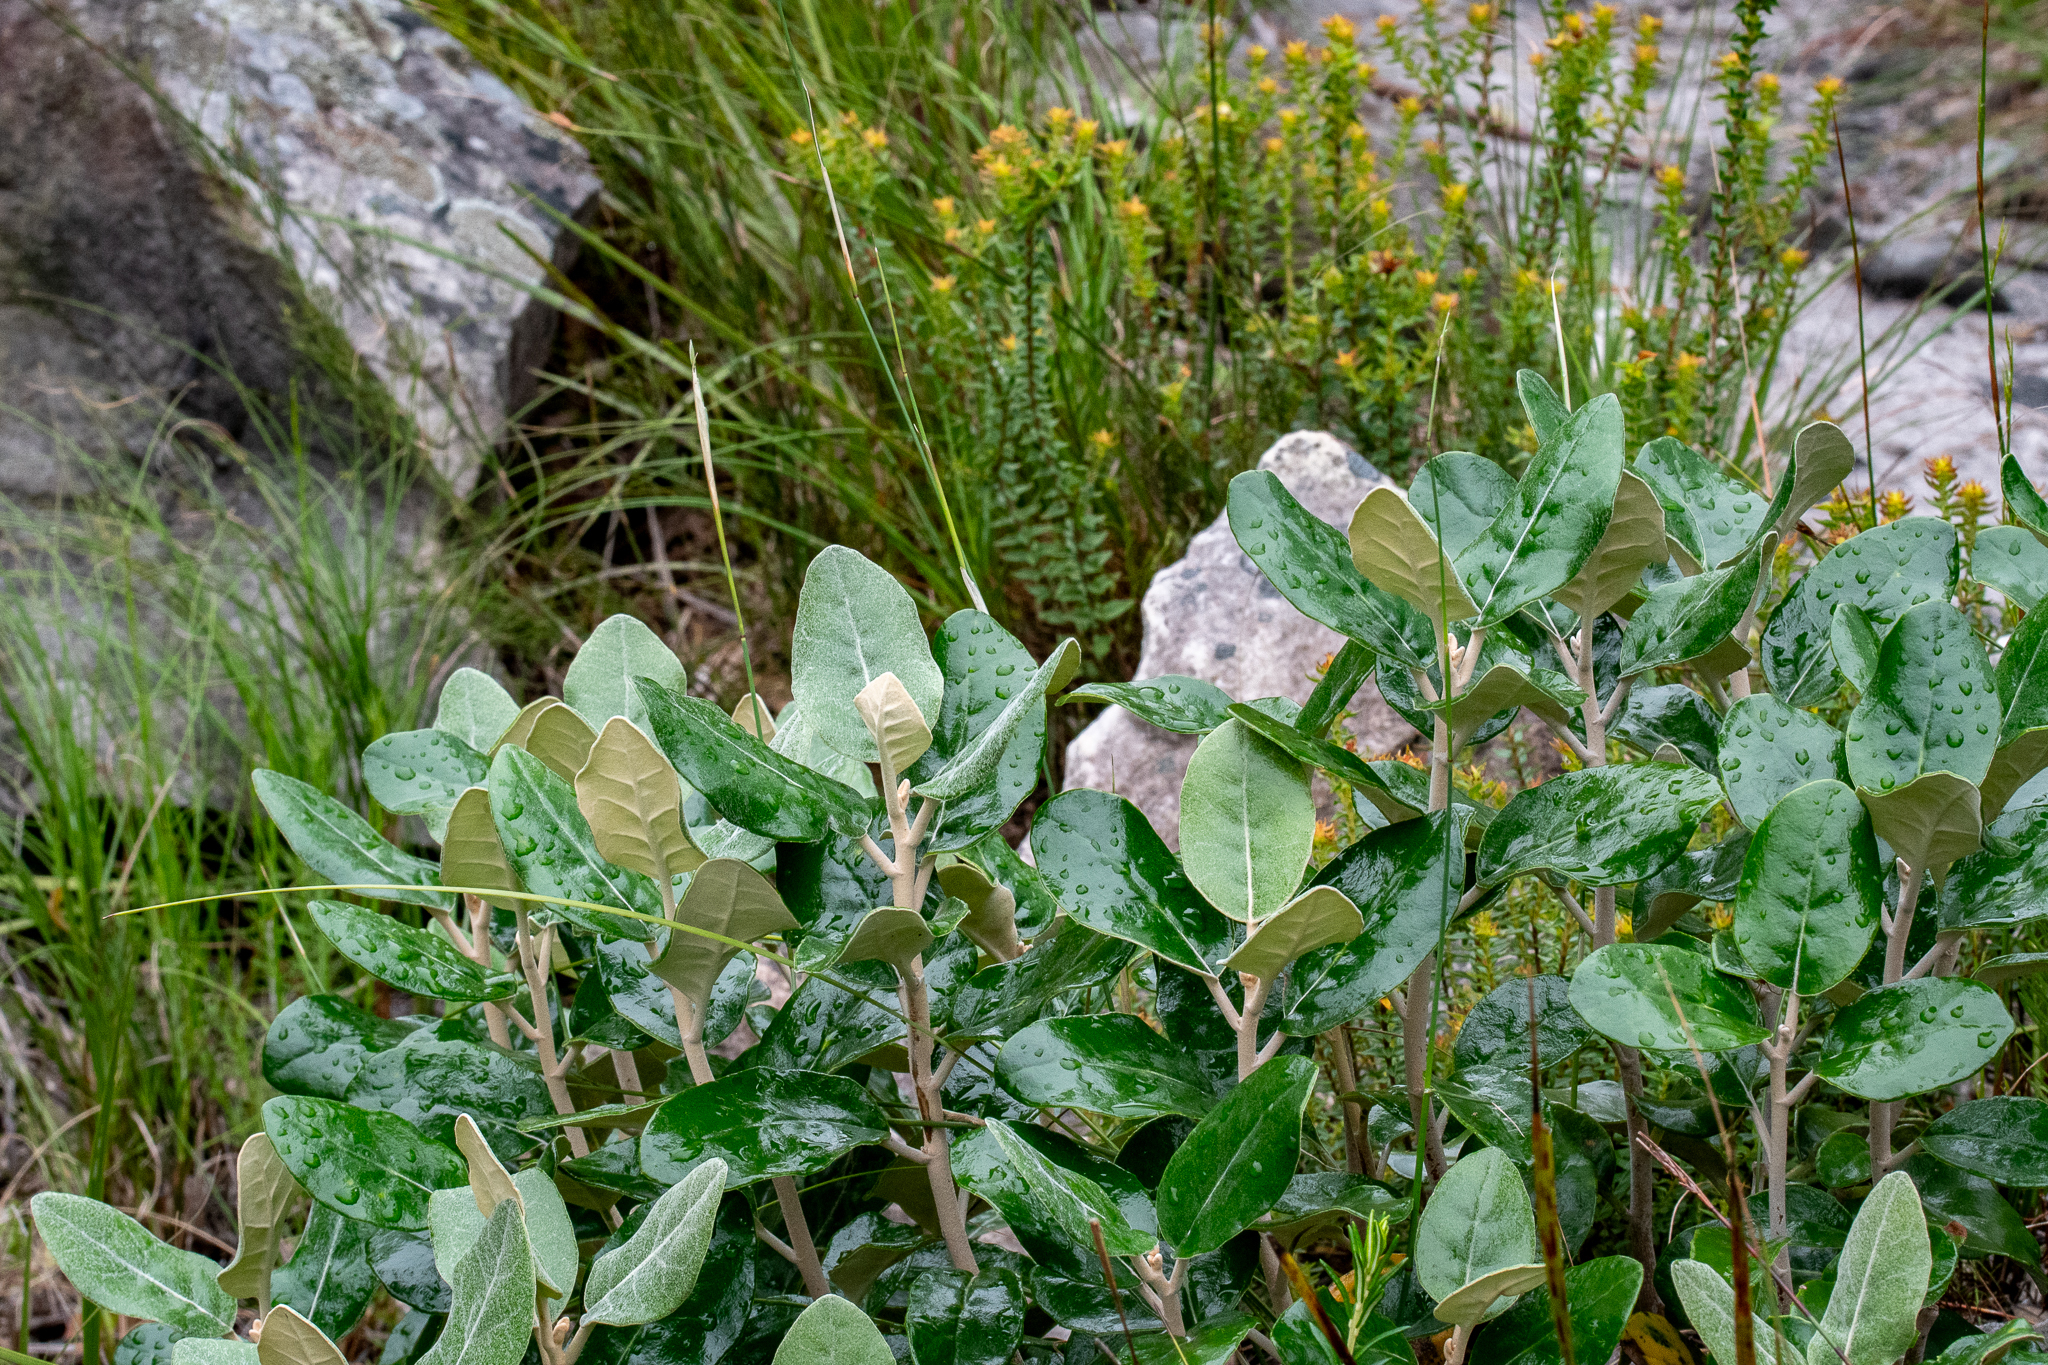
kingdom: Plantae
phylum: Tracheophyta
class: Magnoliopsida
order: Asterales
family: Asteraceae
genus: Capelio
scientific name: Capelio tabularis
